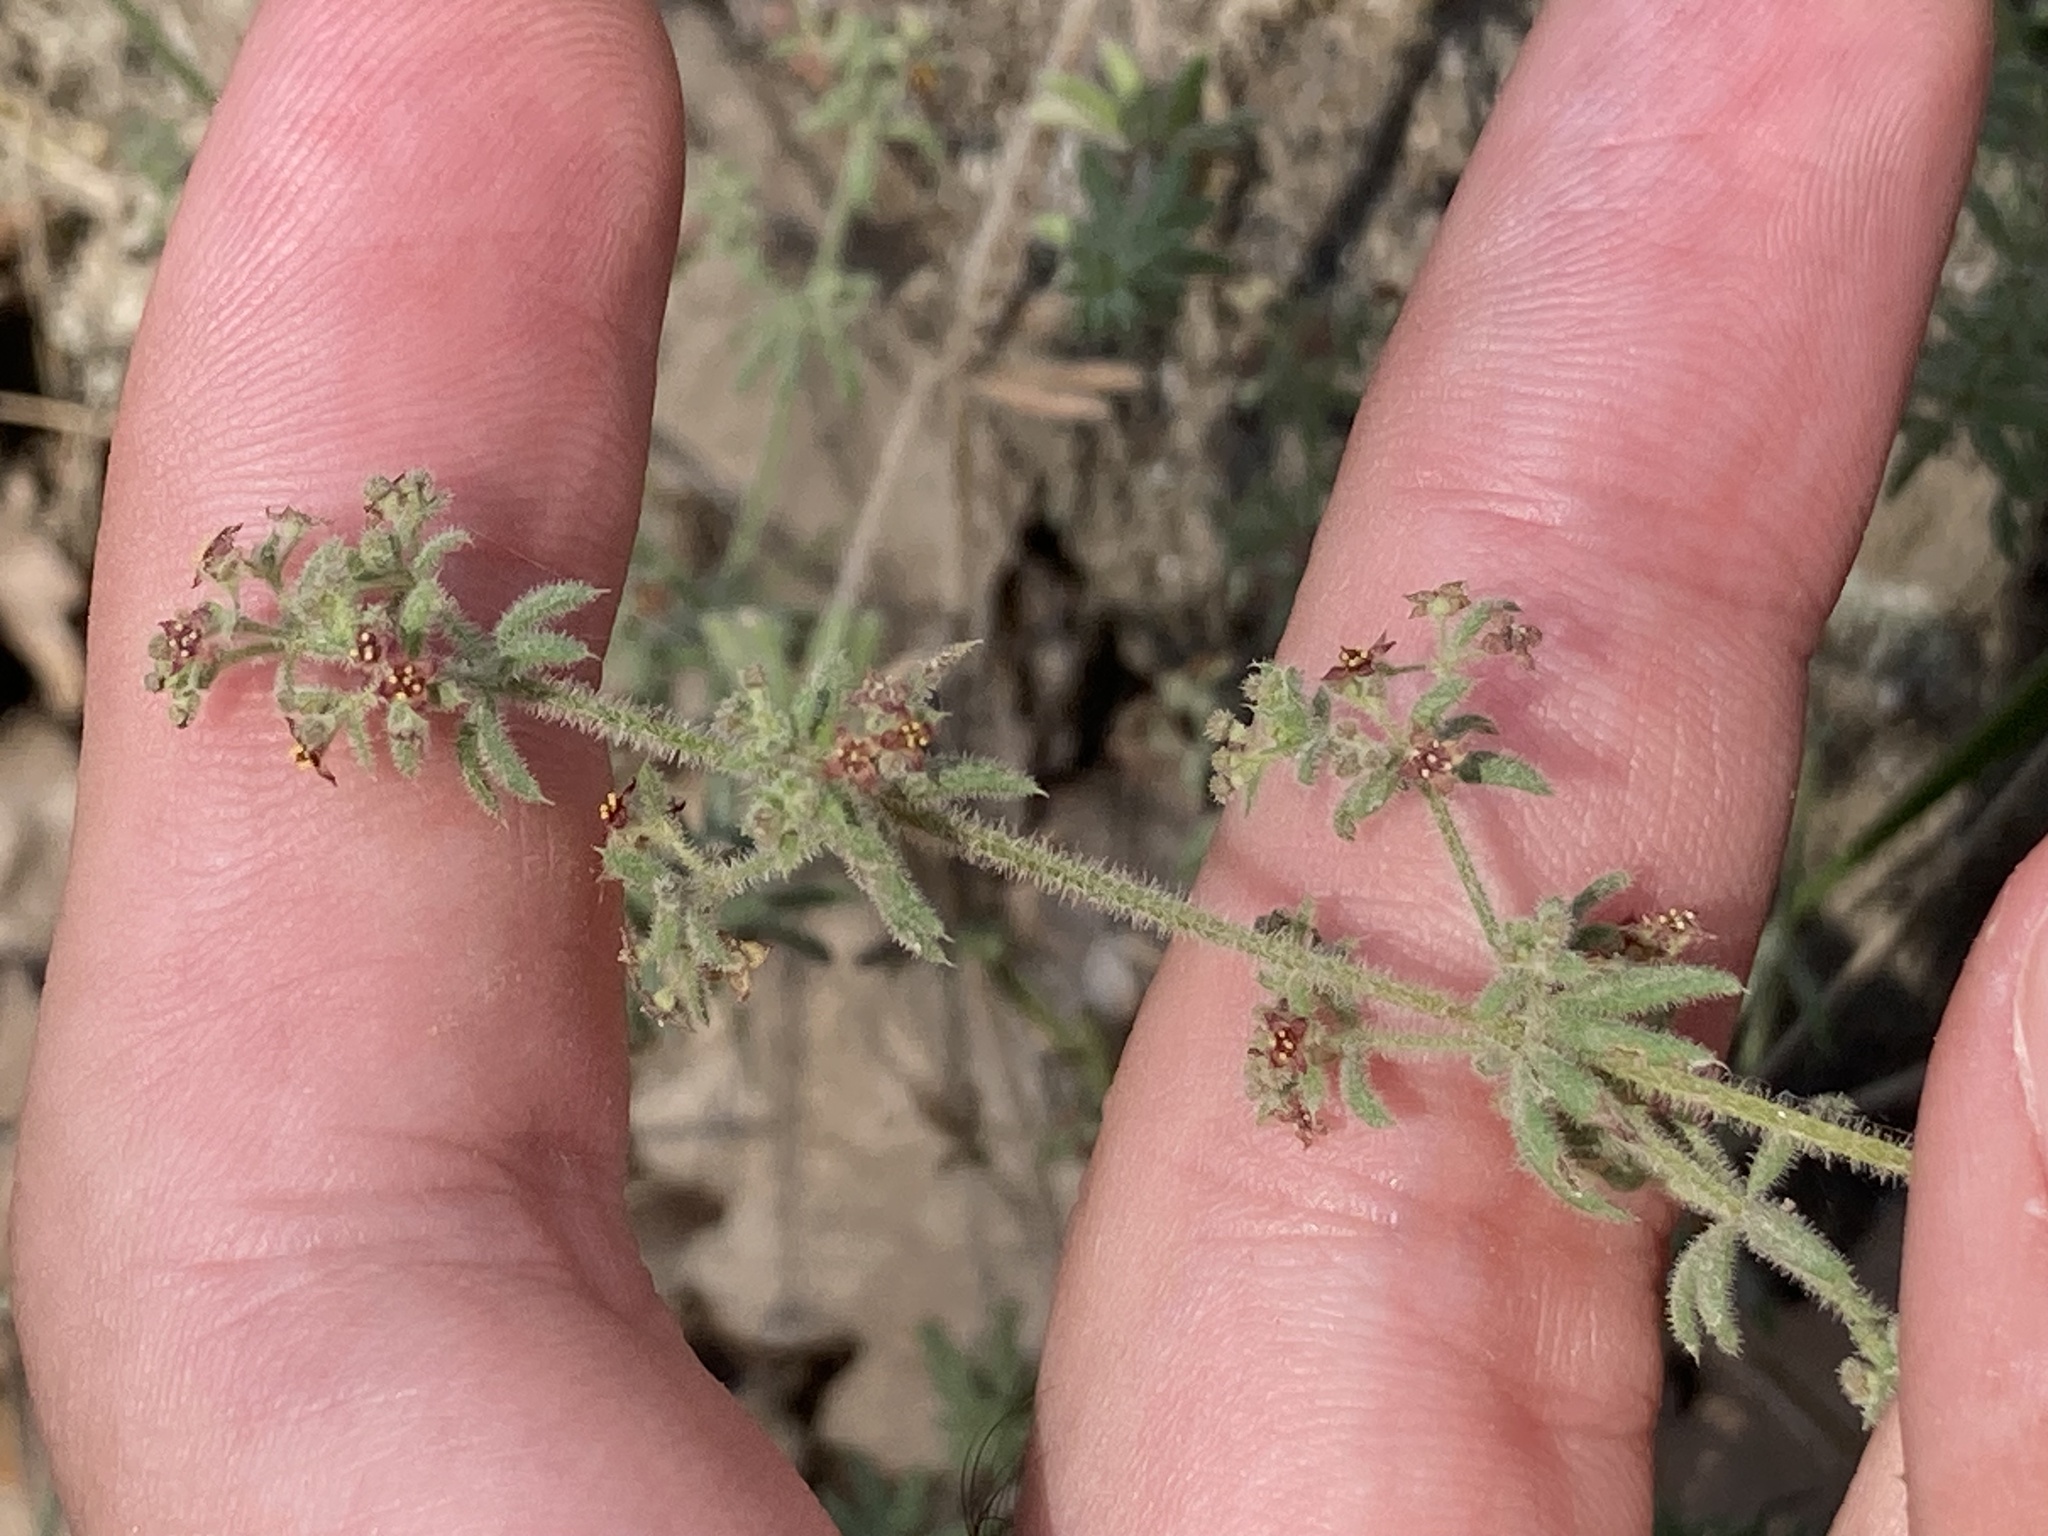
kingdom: Plantae
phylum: Tracheophyta
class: Magnoliopsida
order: Gentianales
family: Rubiaceae
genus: Galium
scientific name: Galium maritimum
